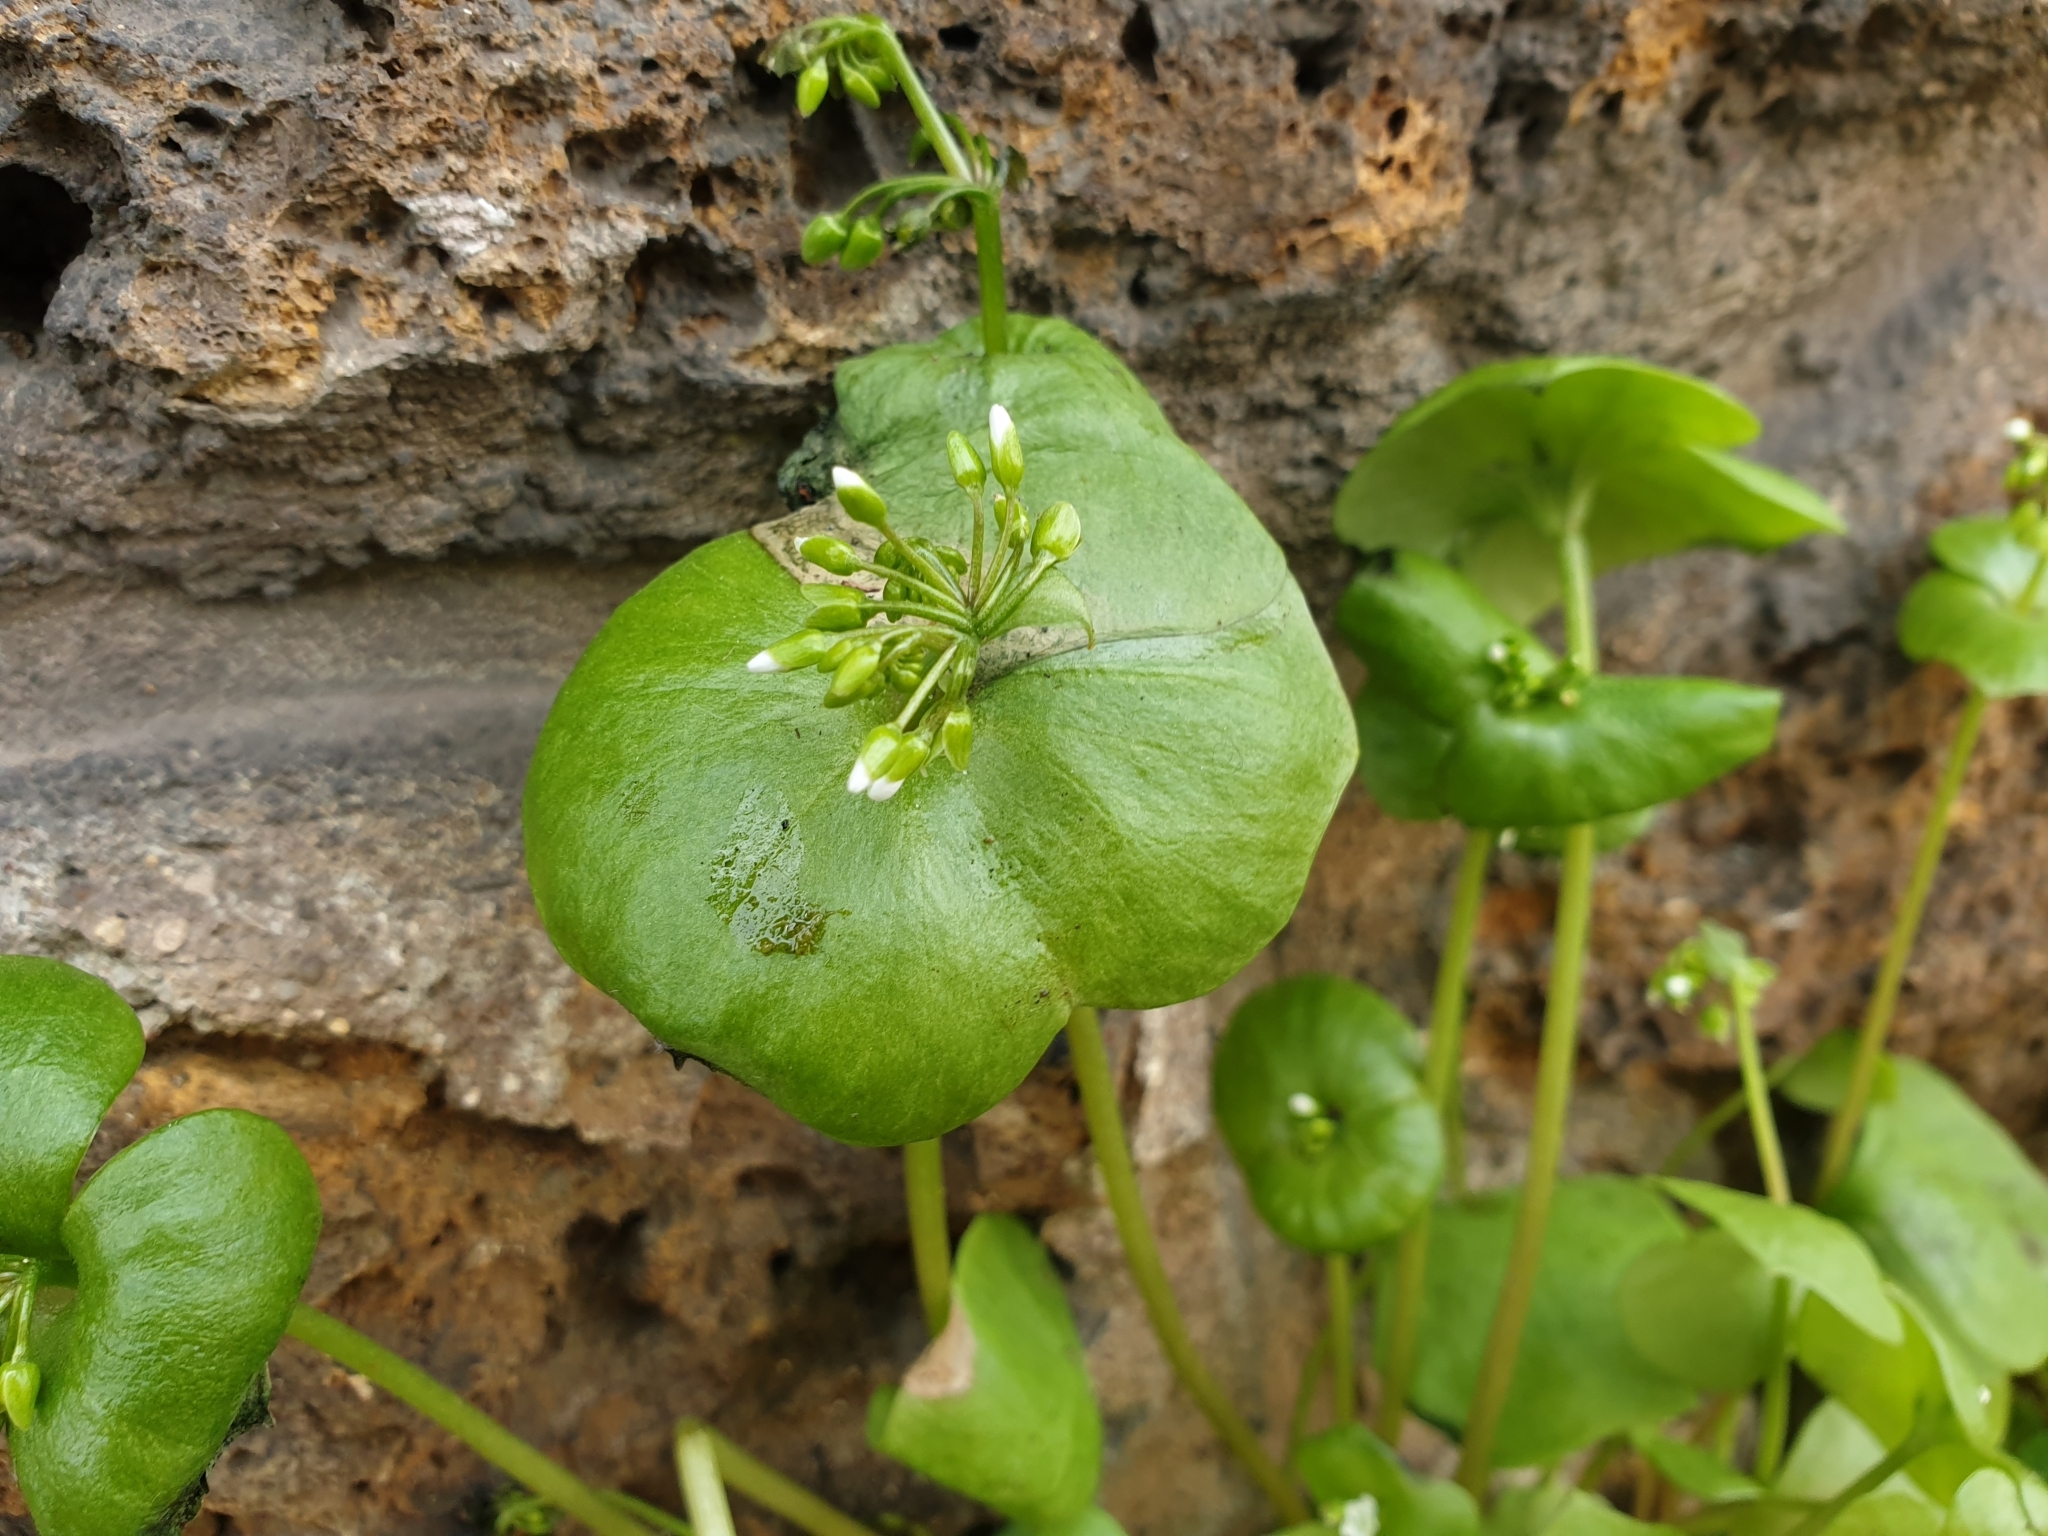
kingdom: Plantae
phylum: Tracheophyta
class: Magnoliopsida
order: Caryophyllales
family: Montiaceae
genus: Claytonia
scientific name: Claytonia perfoliata
